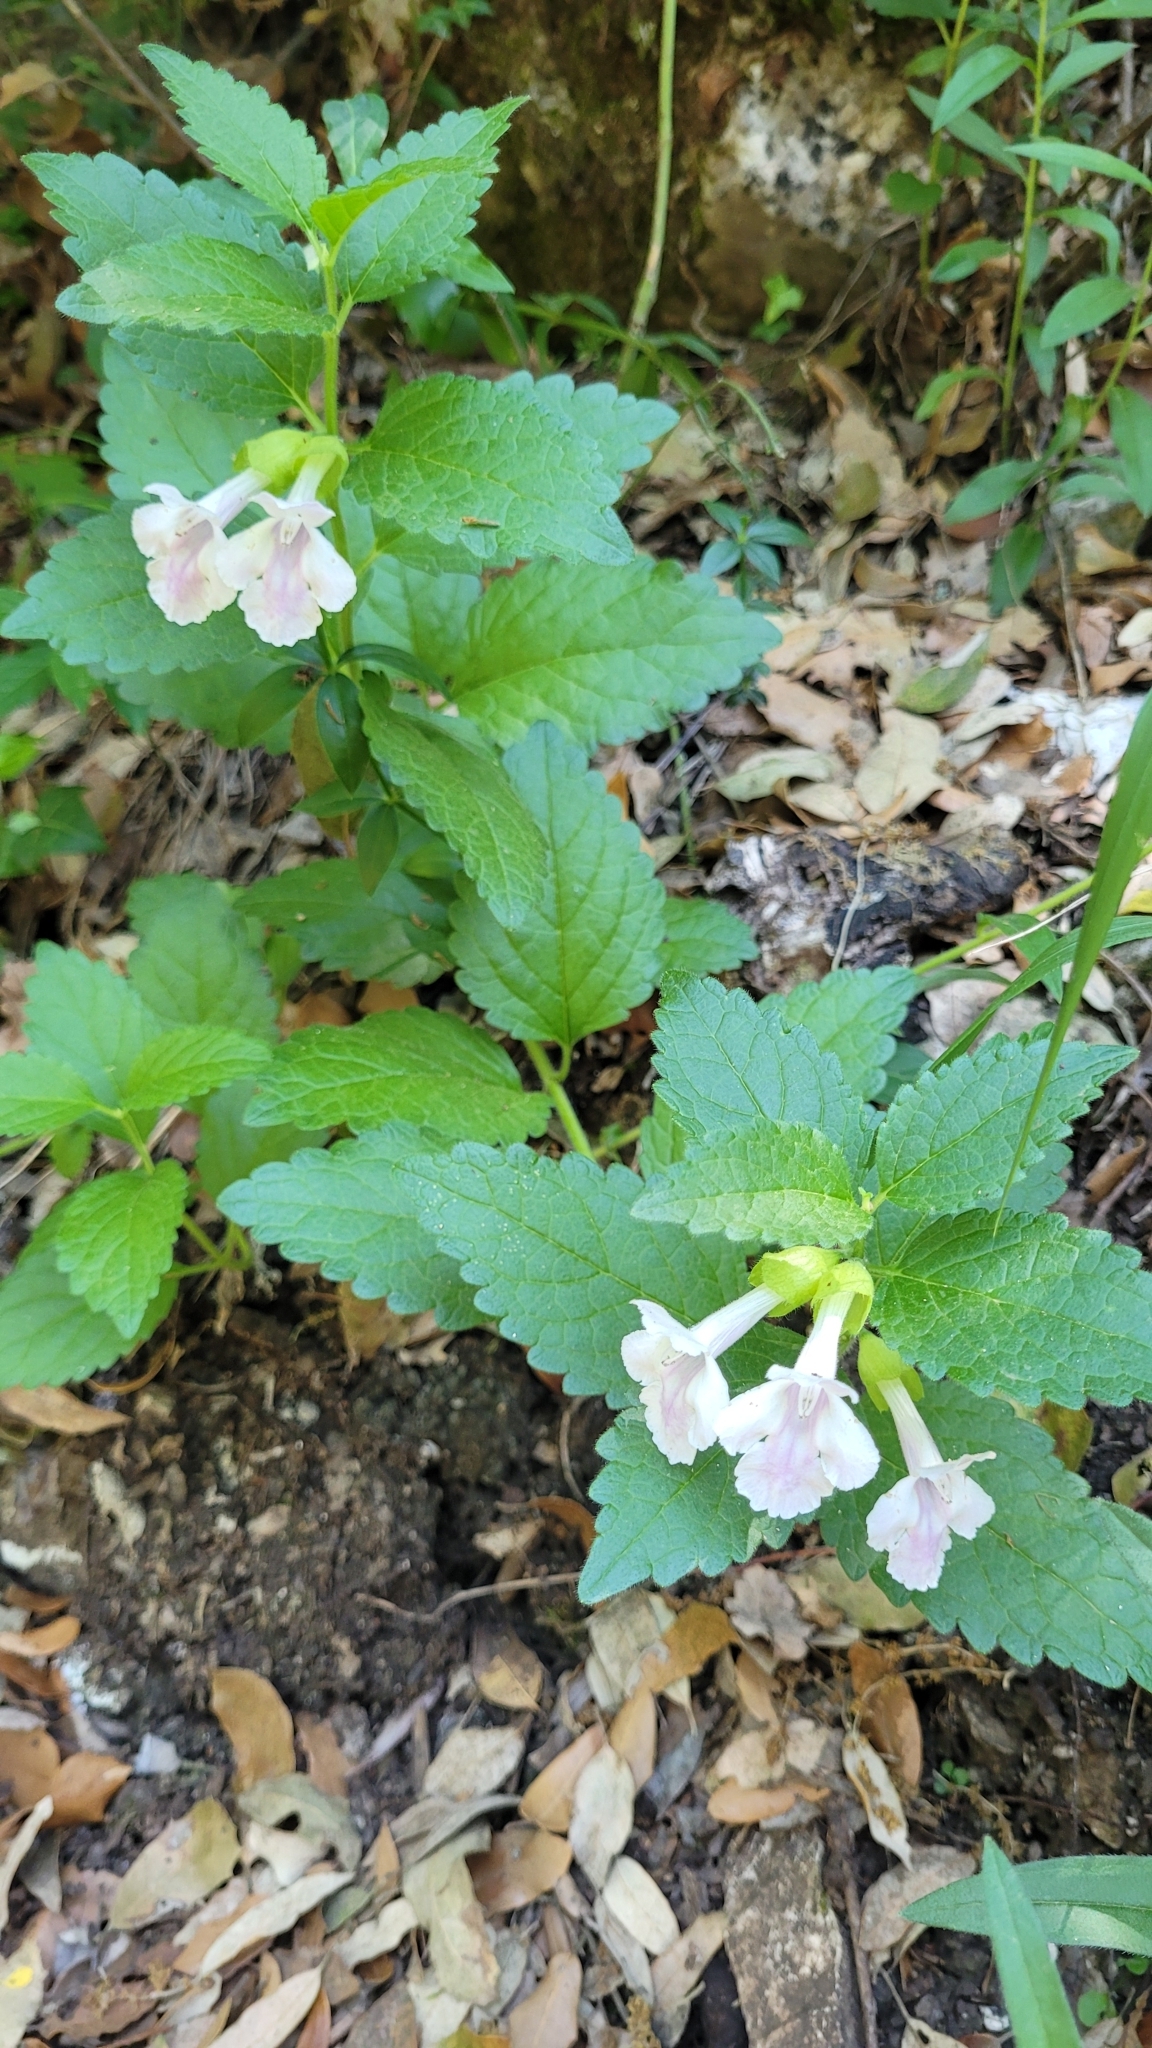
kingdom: Plantae
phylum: Tracheophyta
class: Magnoliopsida
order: Lamiales
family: Lamiaceae
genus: Melittis
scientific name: Melittis melissophyllum
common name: Bastard balm
